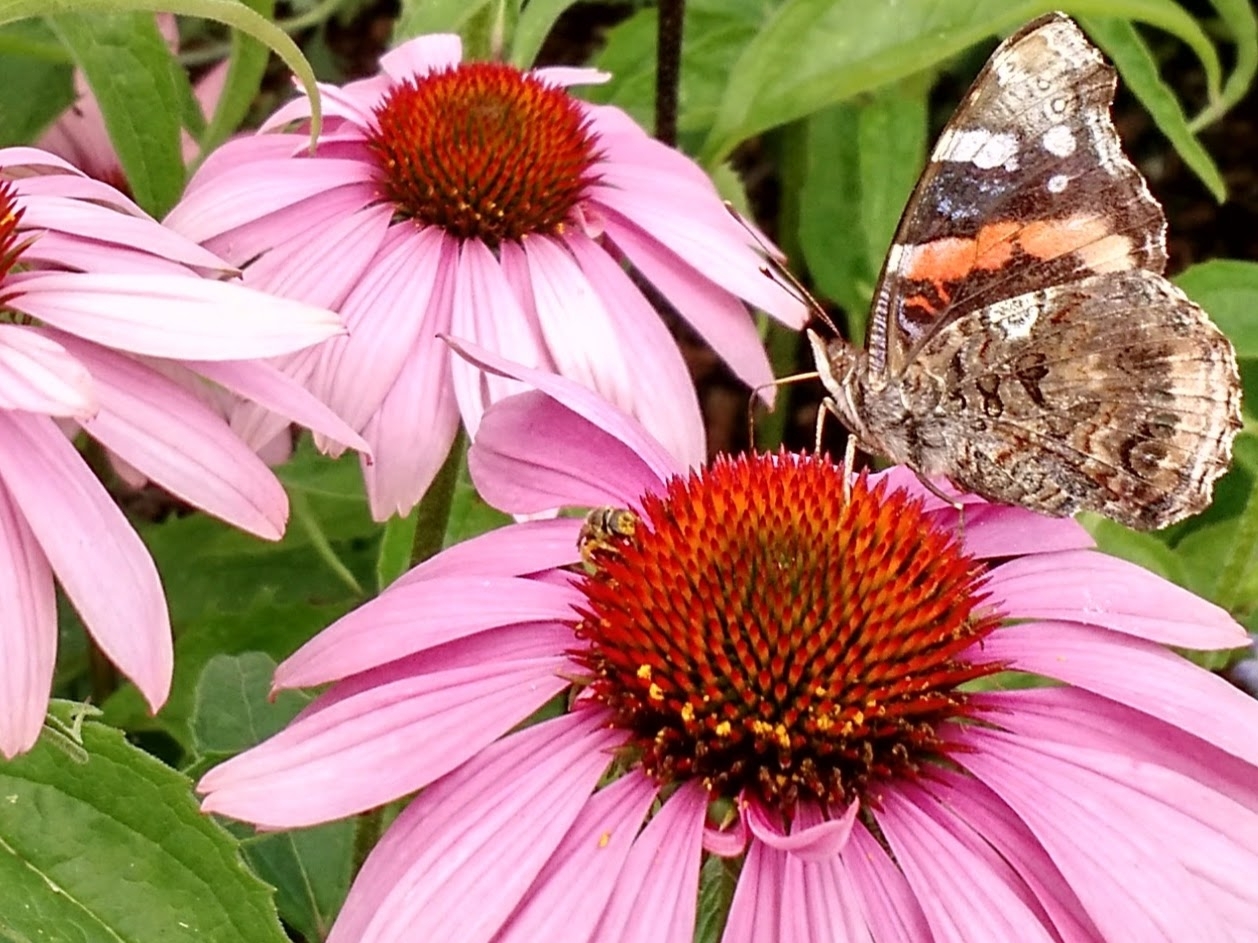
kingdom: Animalia
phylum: Arthropoda
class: Insecta
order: Lepidoptera
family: Nymphalidae
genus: Vanessa
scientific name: Vanessa atalanta
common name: Red admiral
